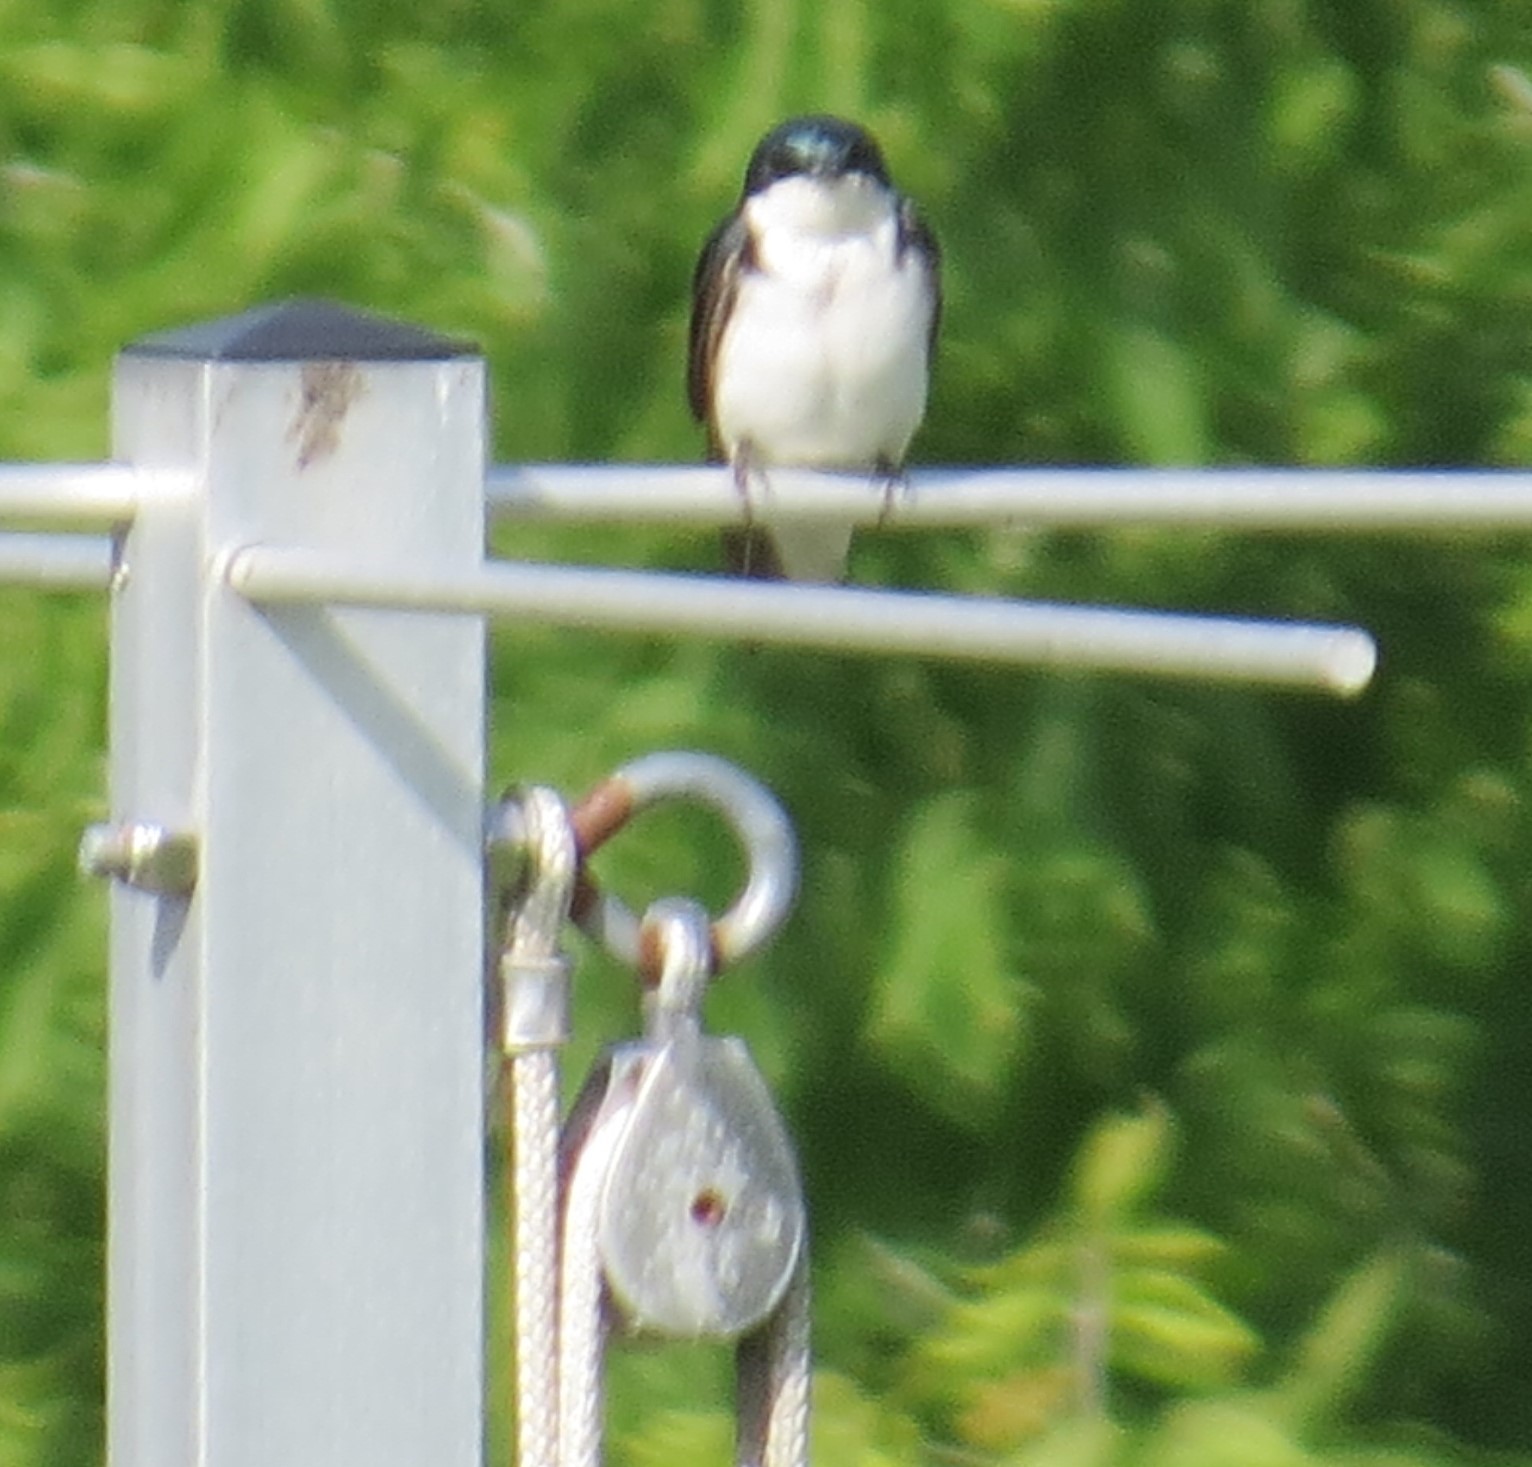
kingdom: Animalia
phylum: Chordata
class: Aves
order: Passeriformes
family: Hirundinidae
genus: Tachycineta
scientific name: Tachycineta bicolor
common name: Tree swallow
